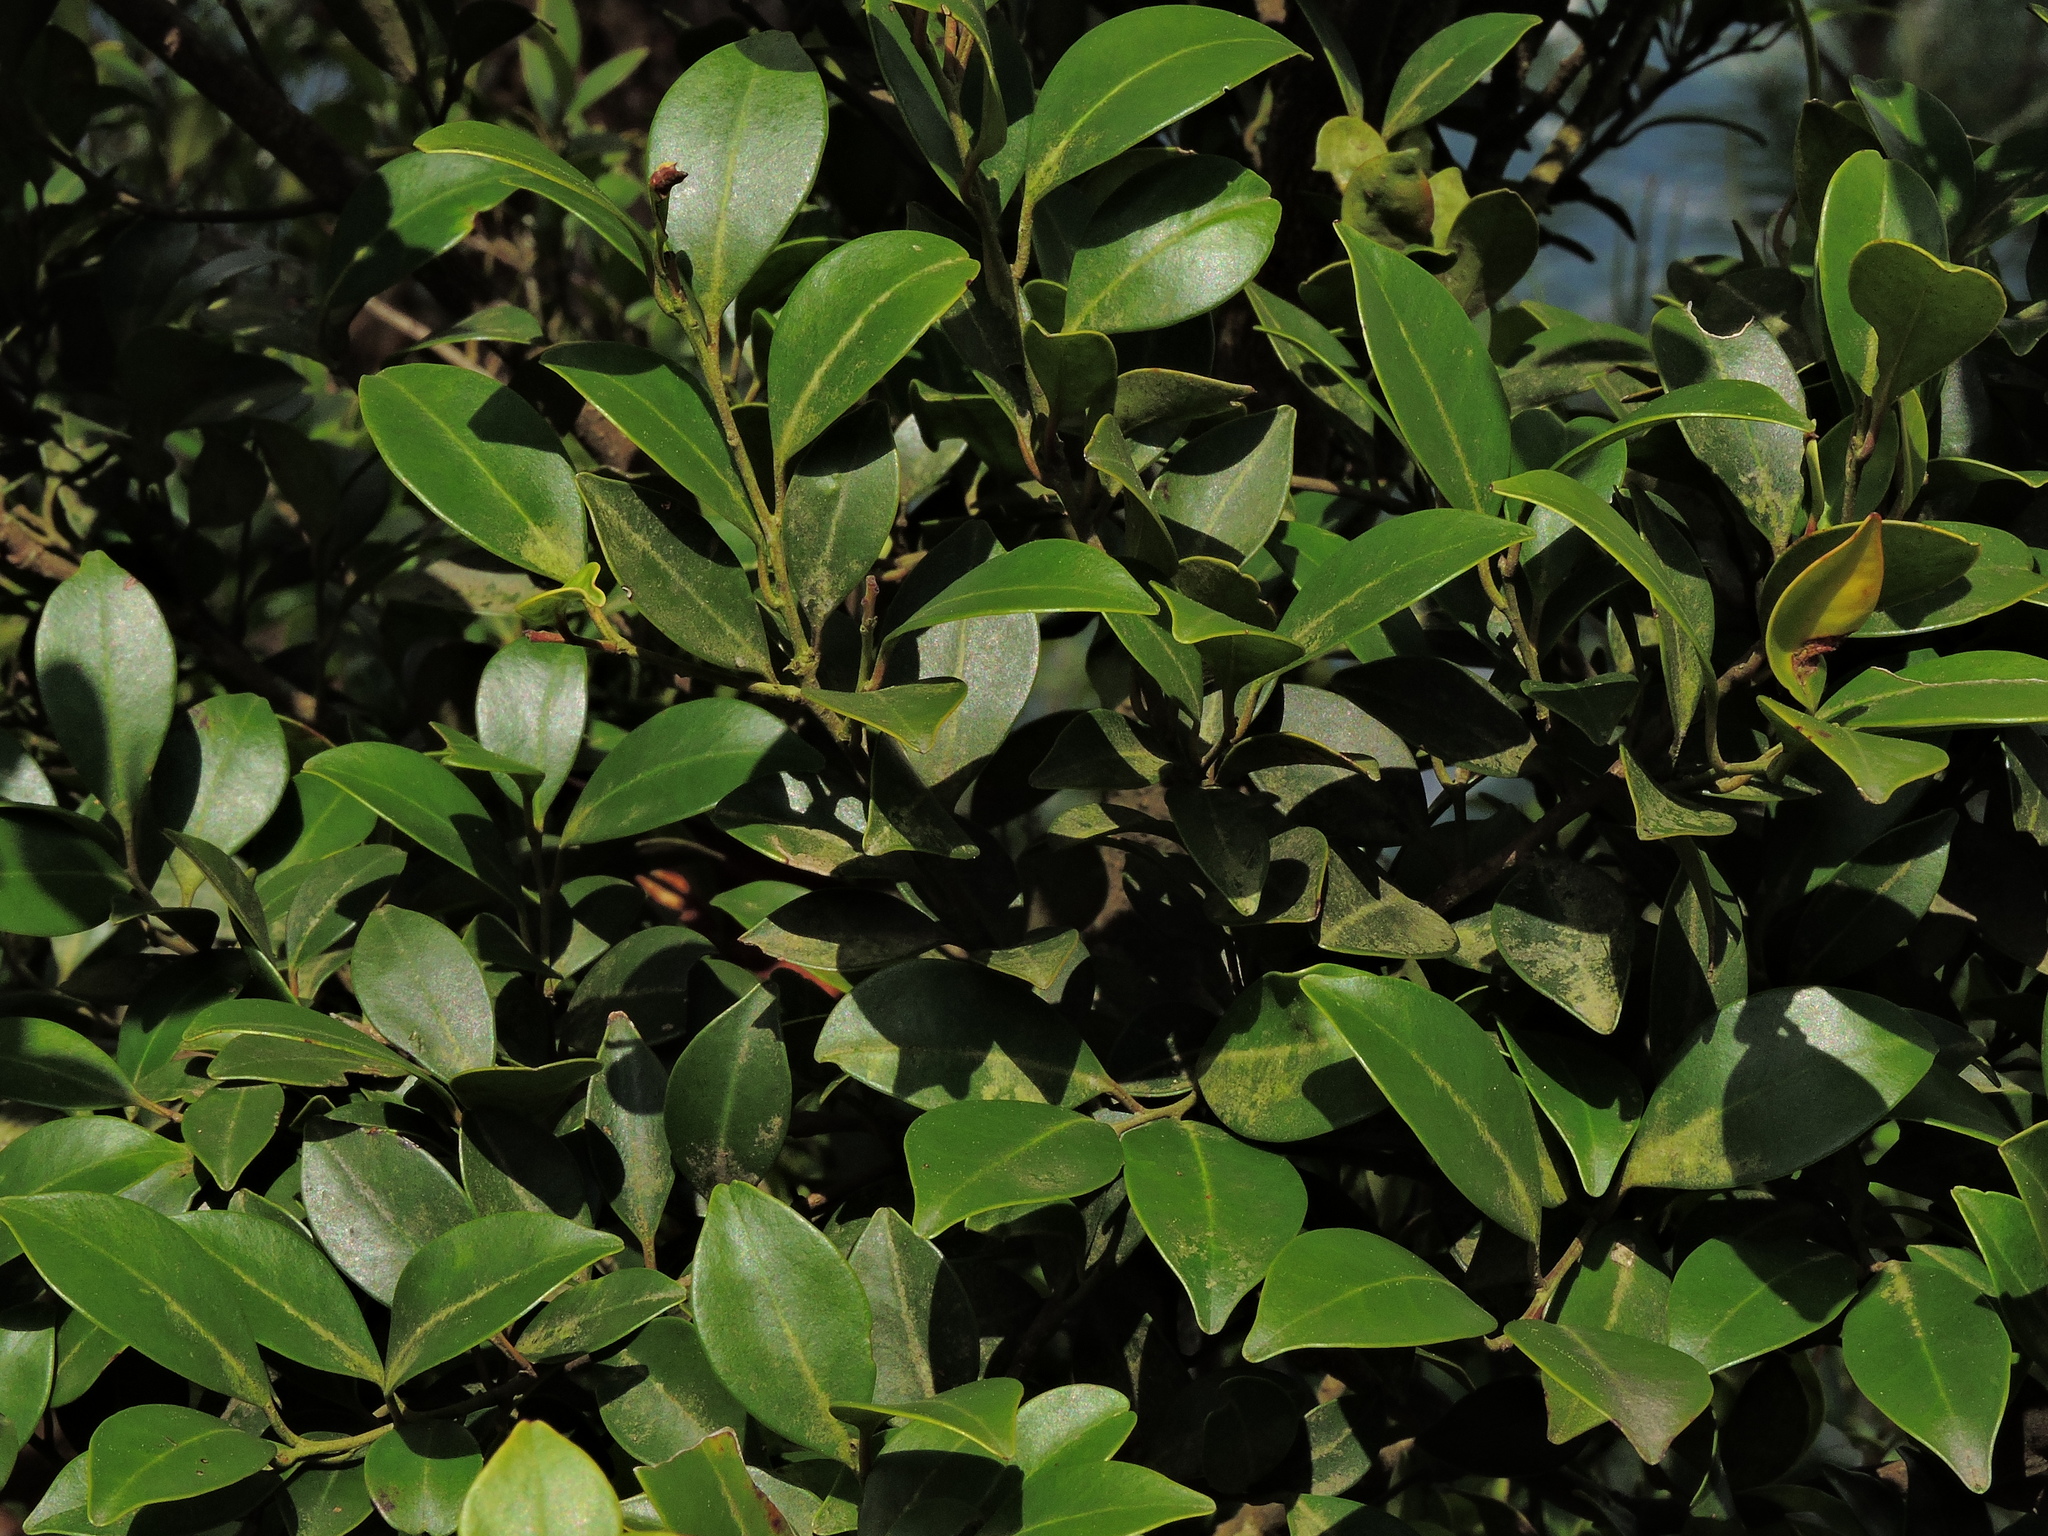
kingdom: Plantae
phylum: Tracheophyta
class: Magnoliopsida
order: Aquifoliales
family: Aquifoliaceae
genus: Ilex
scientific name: Ilex goshiensis
